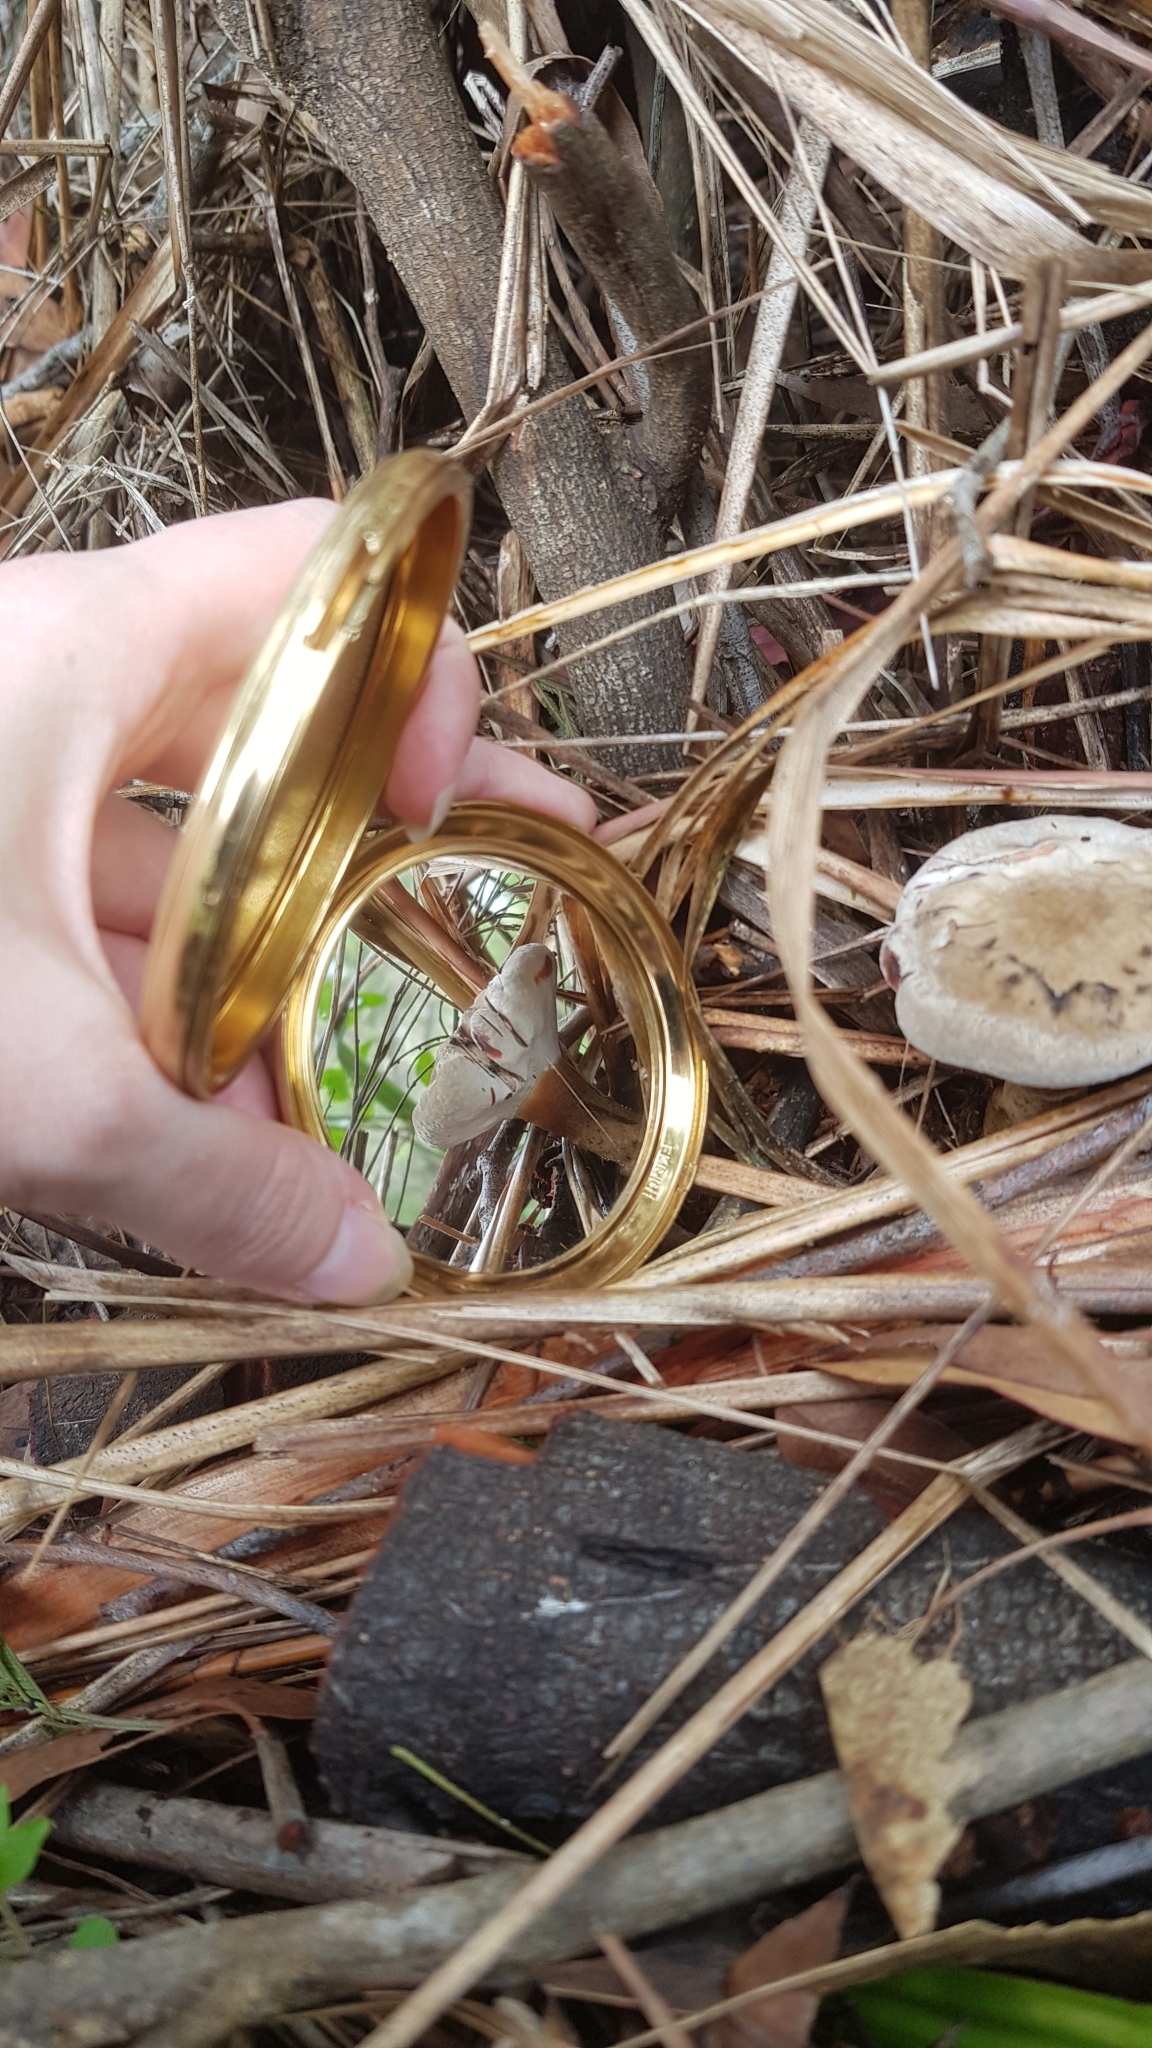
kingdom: Fungi
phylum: Basidiomycota
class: Agaricomycetes
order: Polyporales
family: Ganodermataceae
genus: Sanguinoderma
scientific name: Sanguinoderma rude
